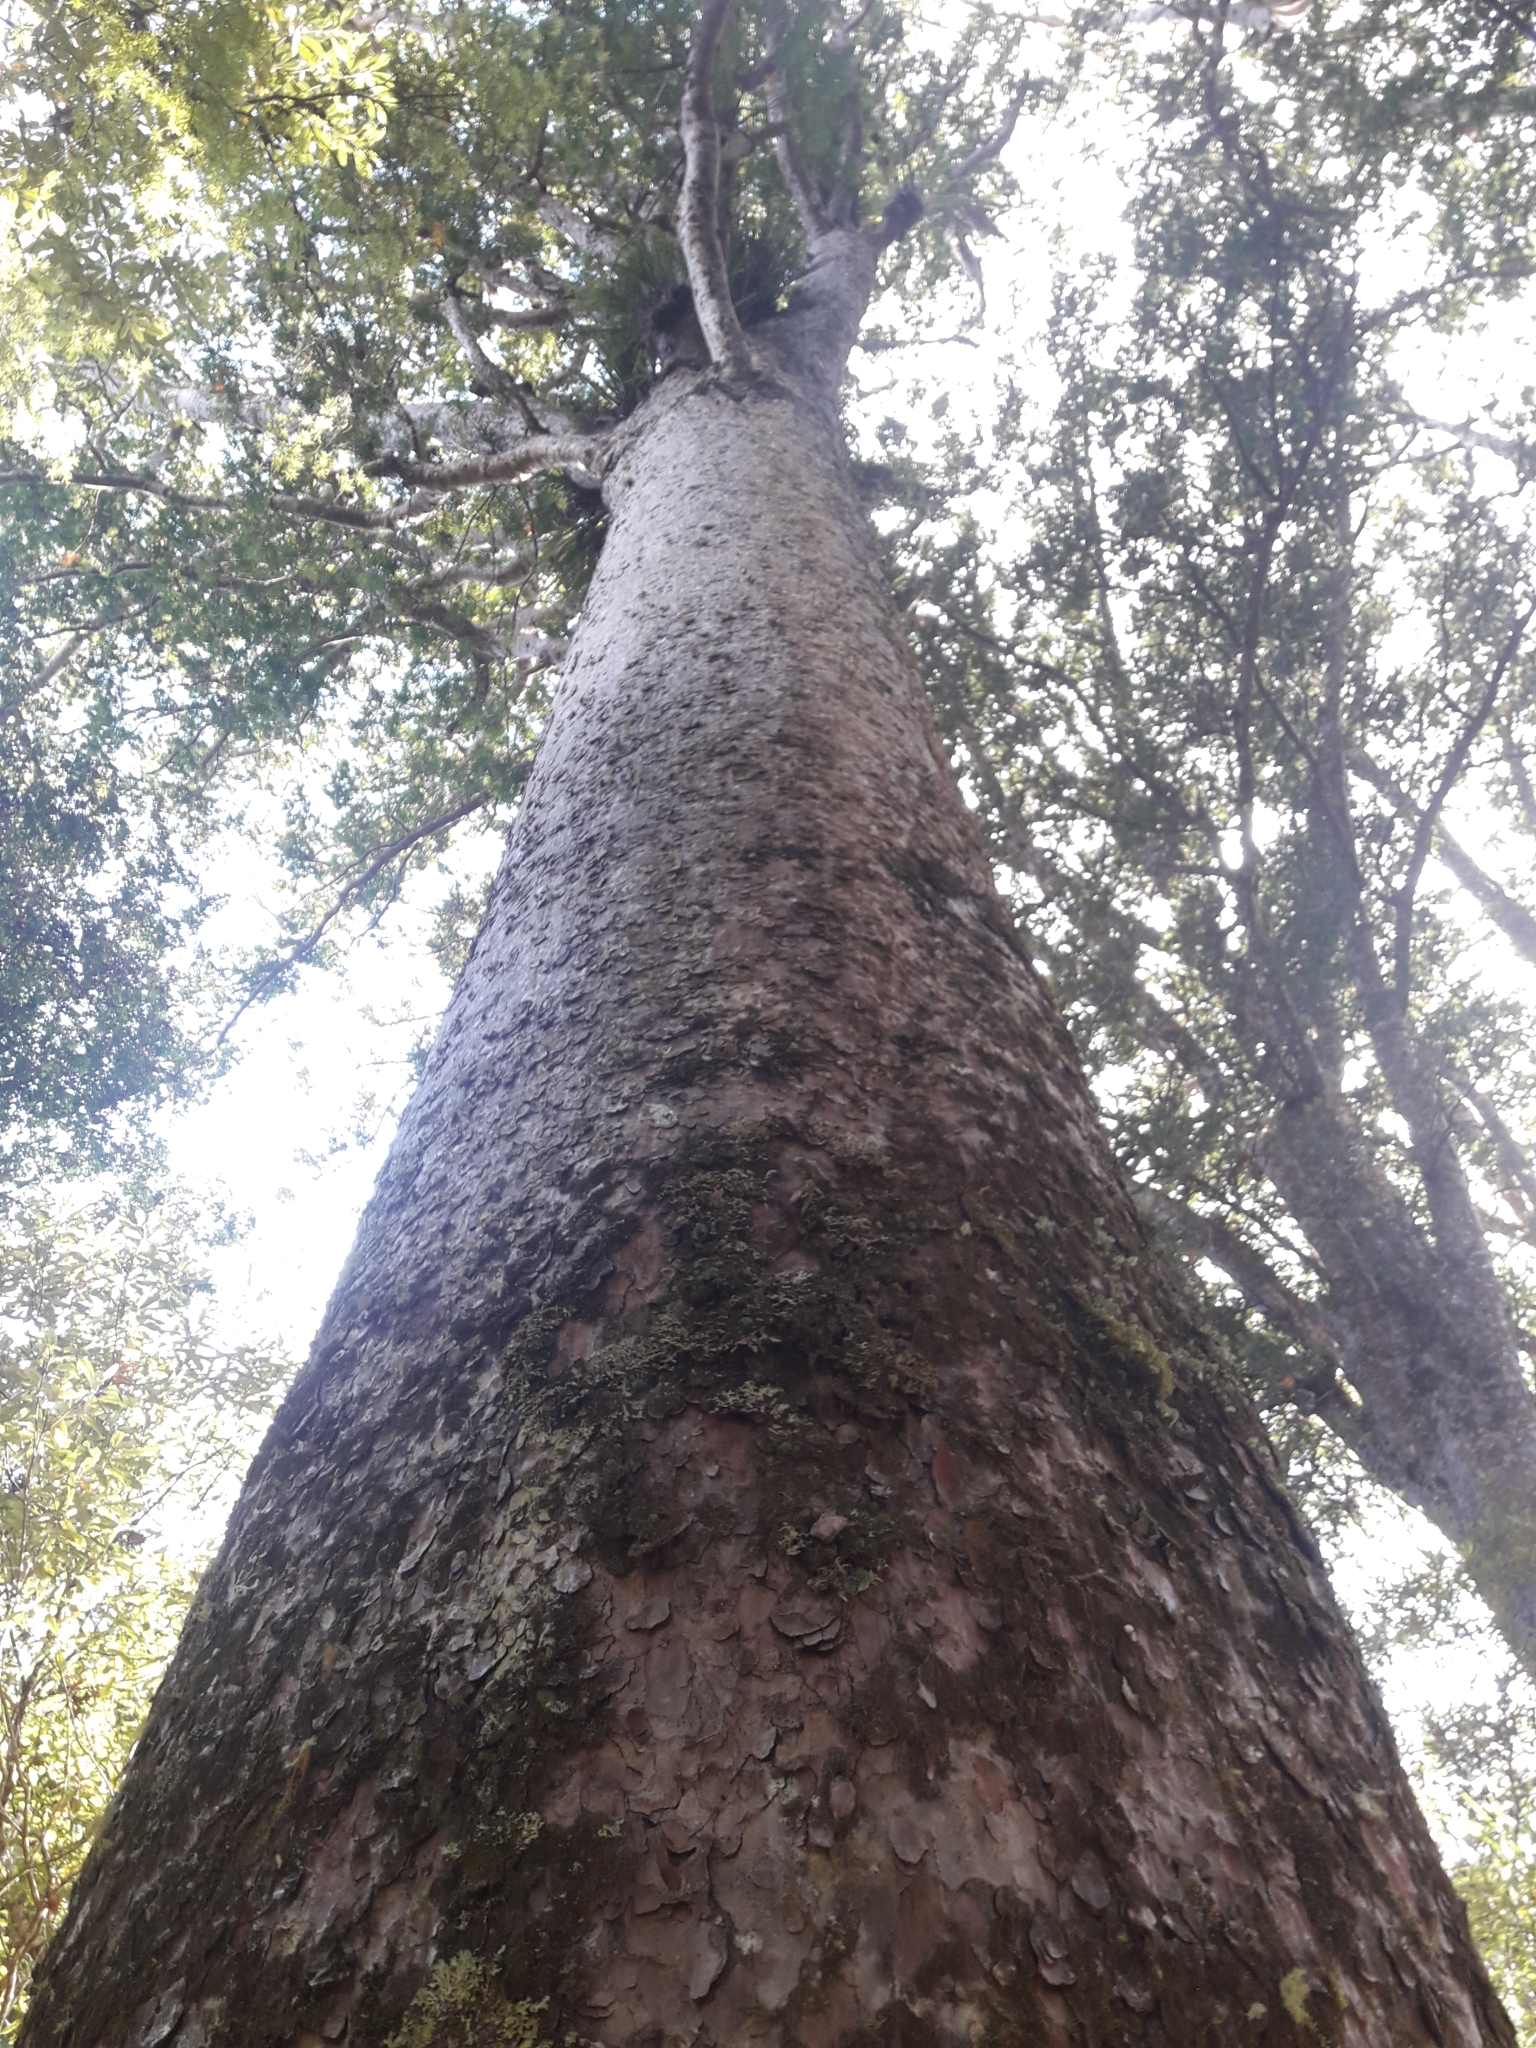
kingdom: Plantae
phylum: Tracheophyta
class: Pinopsida
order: Pinales
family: Araucariaceae
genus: Agathis
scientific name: Agathis australis
